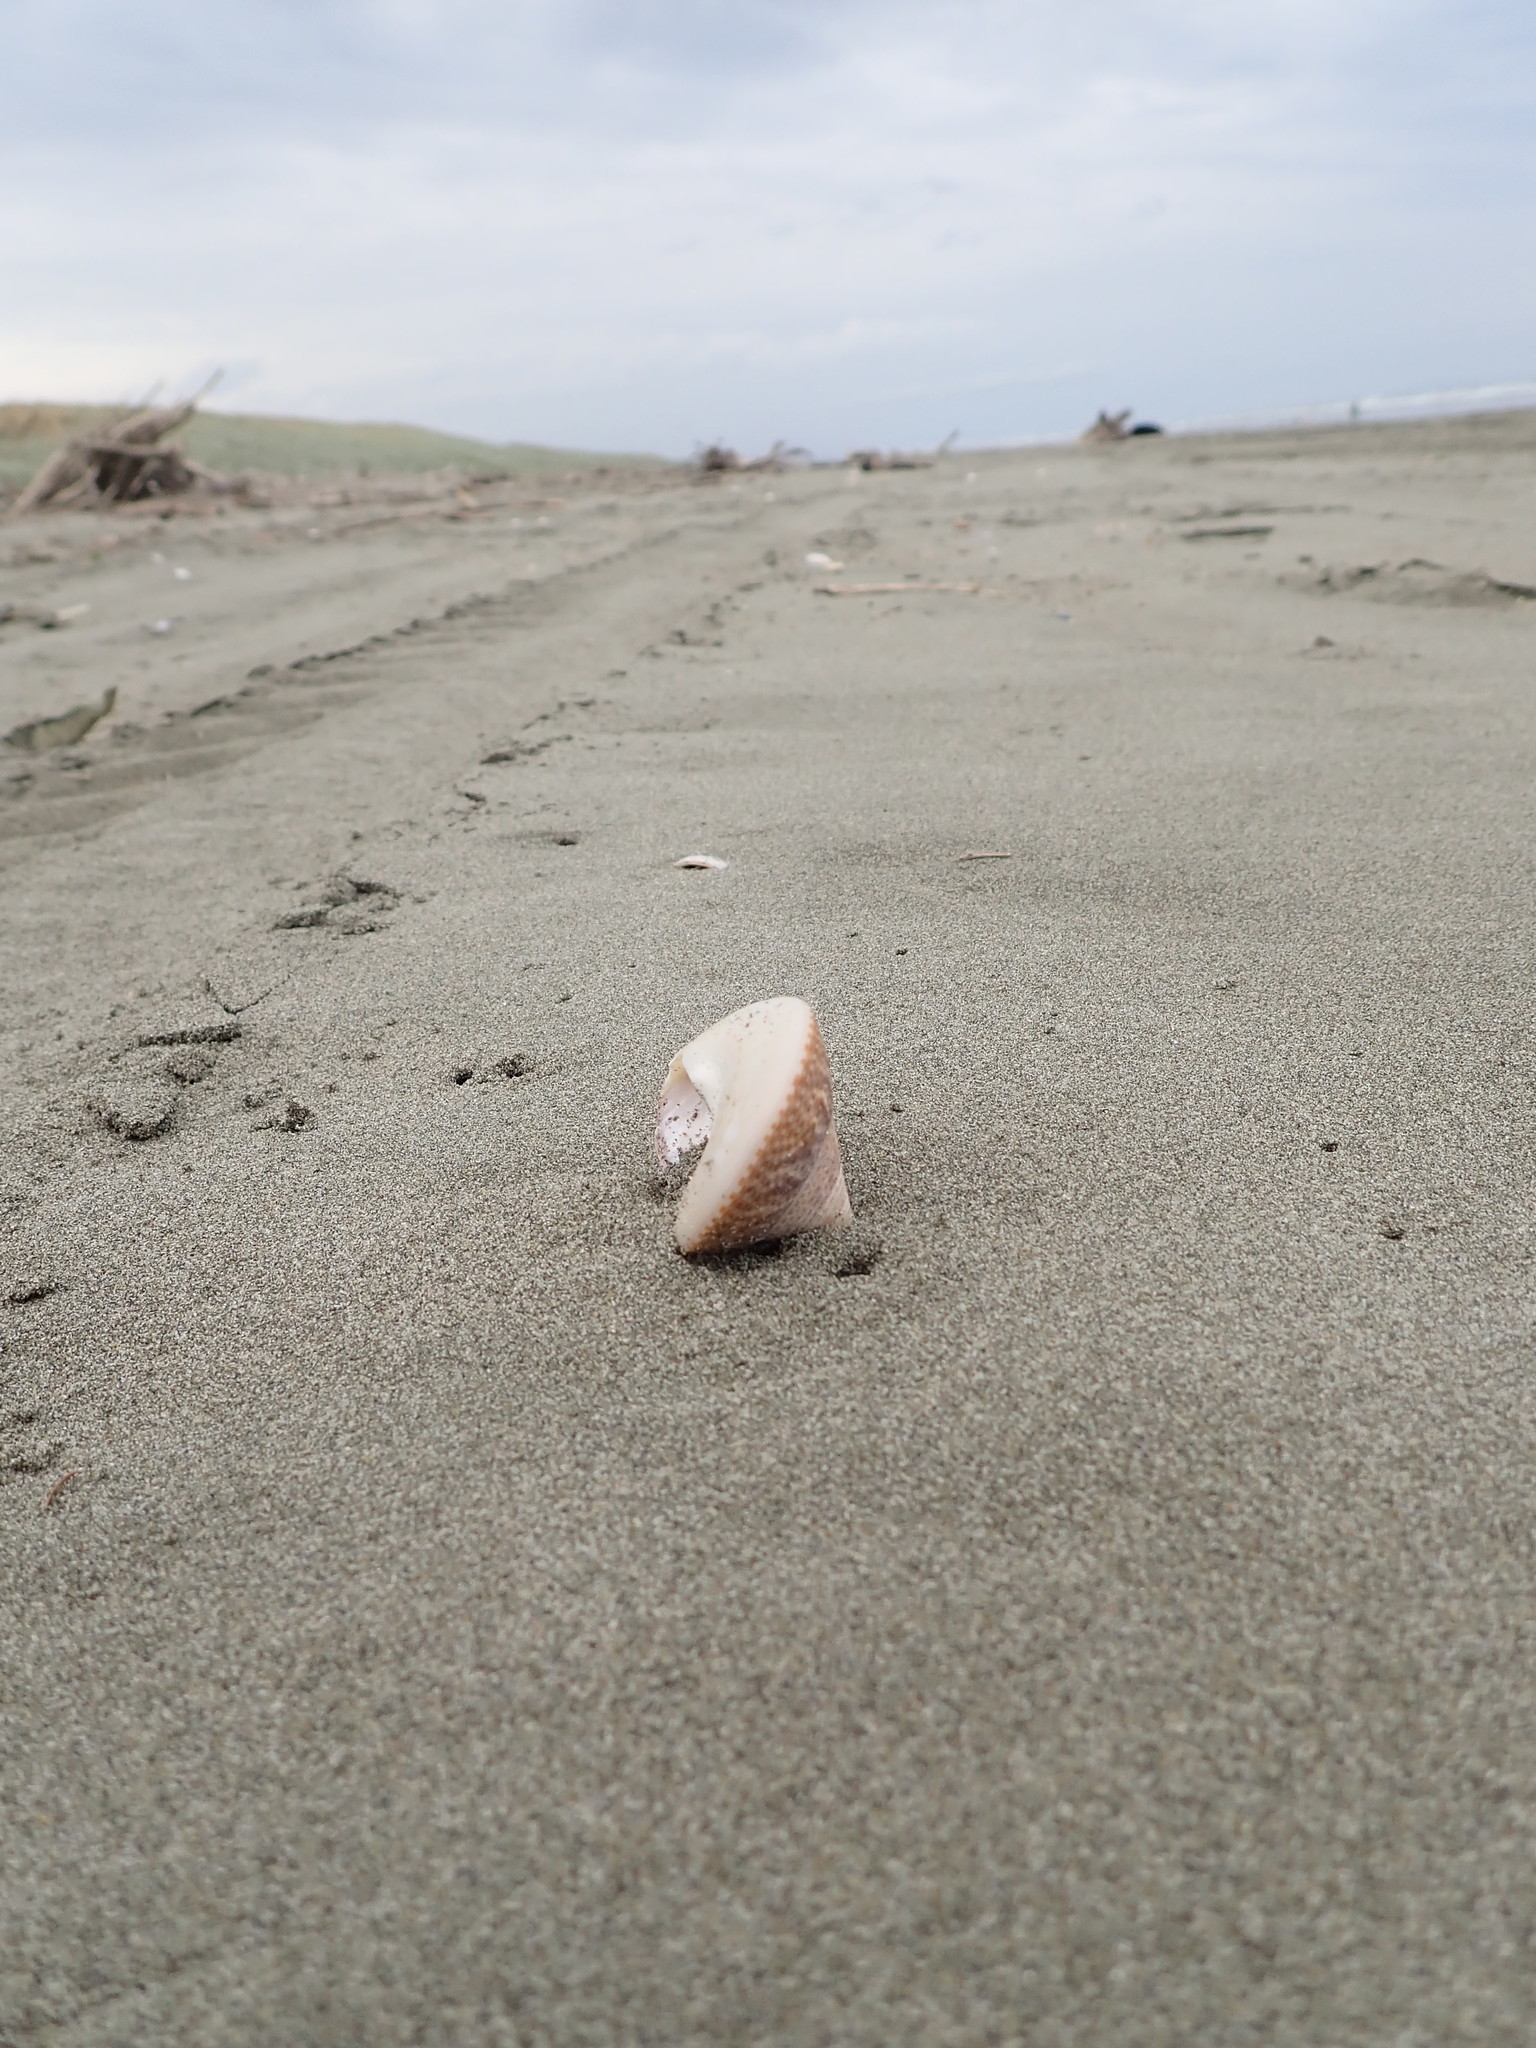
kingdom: Animalia
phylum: Mollusca
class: Gastropoda
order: Trochida
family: Calliostomatidae
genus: Maurea
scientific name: Maurea selecta
